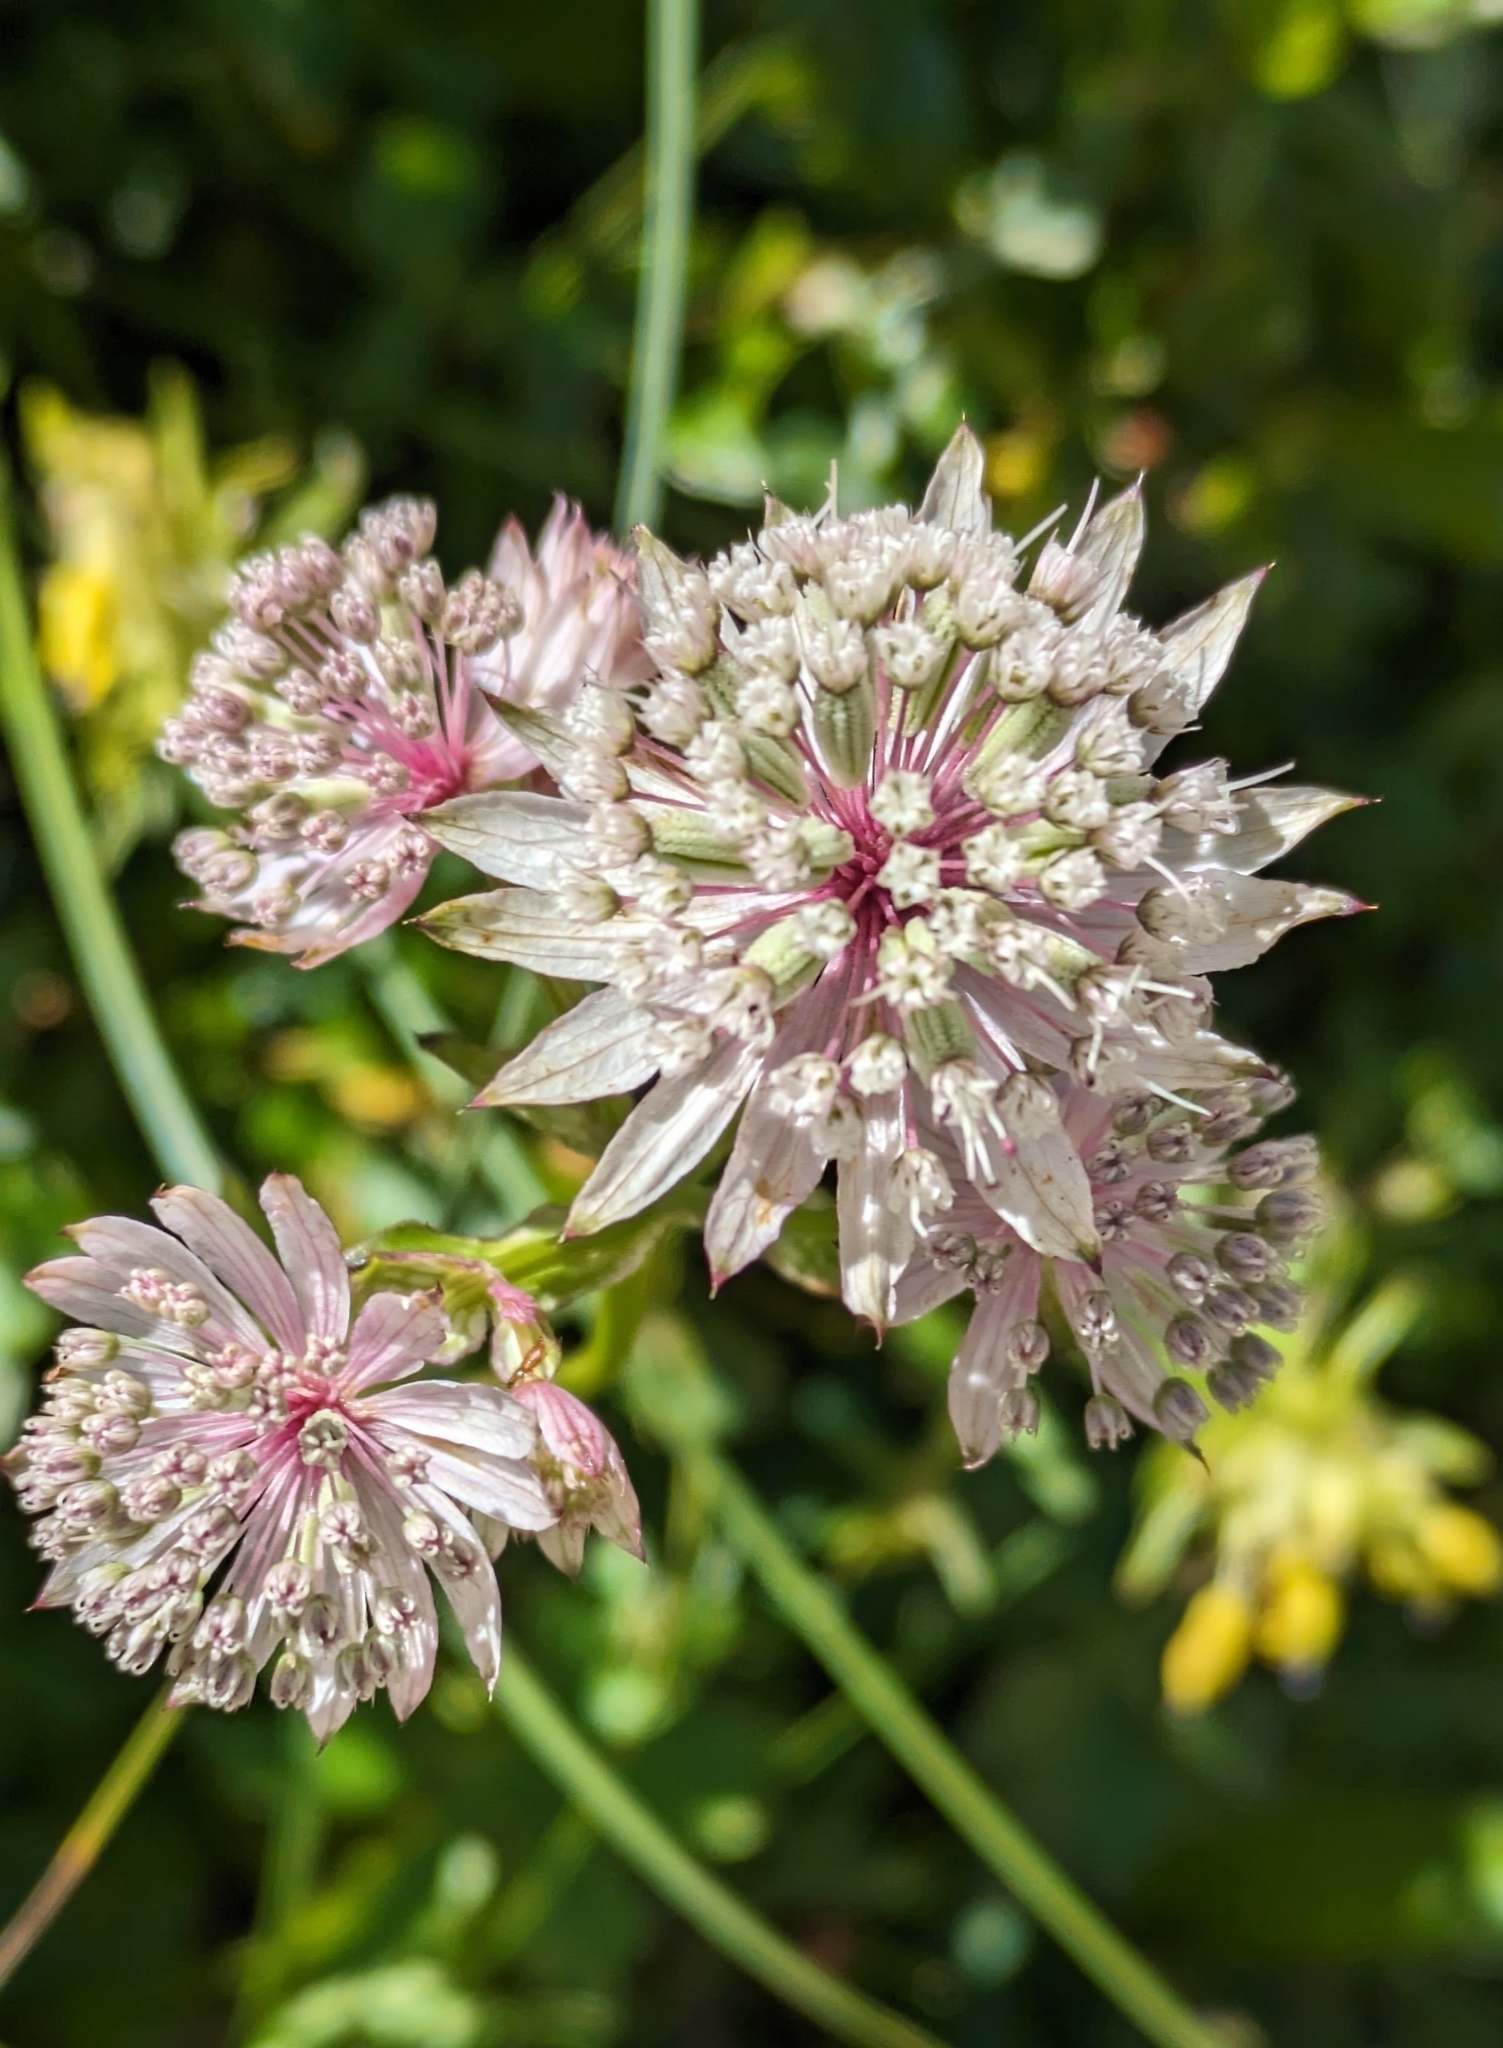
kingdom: Plantae
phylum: Tracheophyta
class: Magnoliopsida
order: Apiales
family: Apiaceae
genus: Astrantia
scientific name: Astrantia major
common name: Greater masterwort
